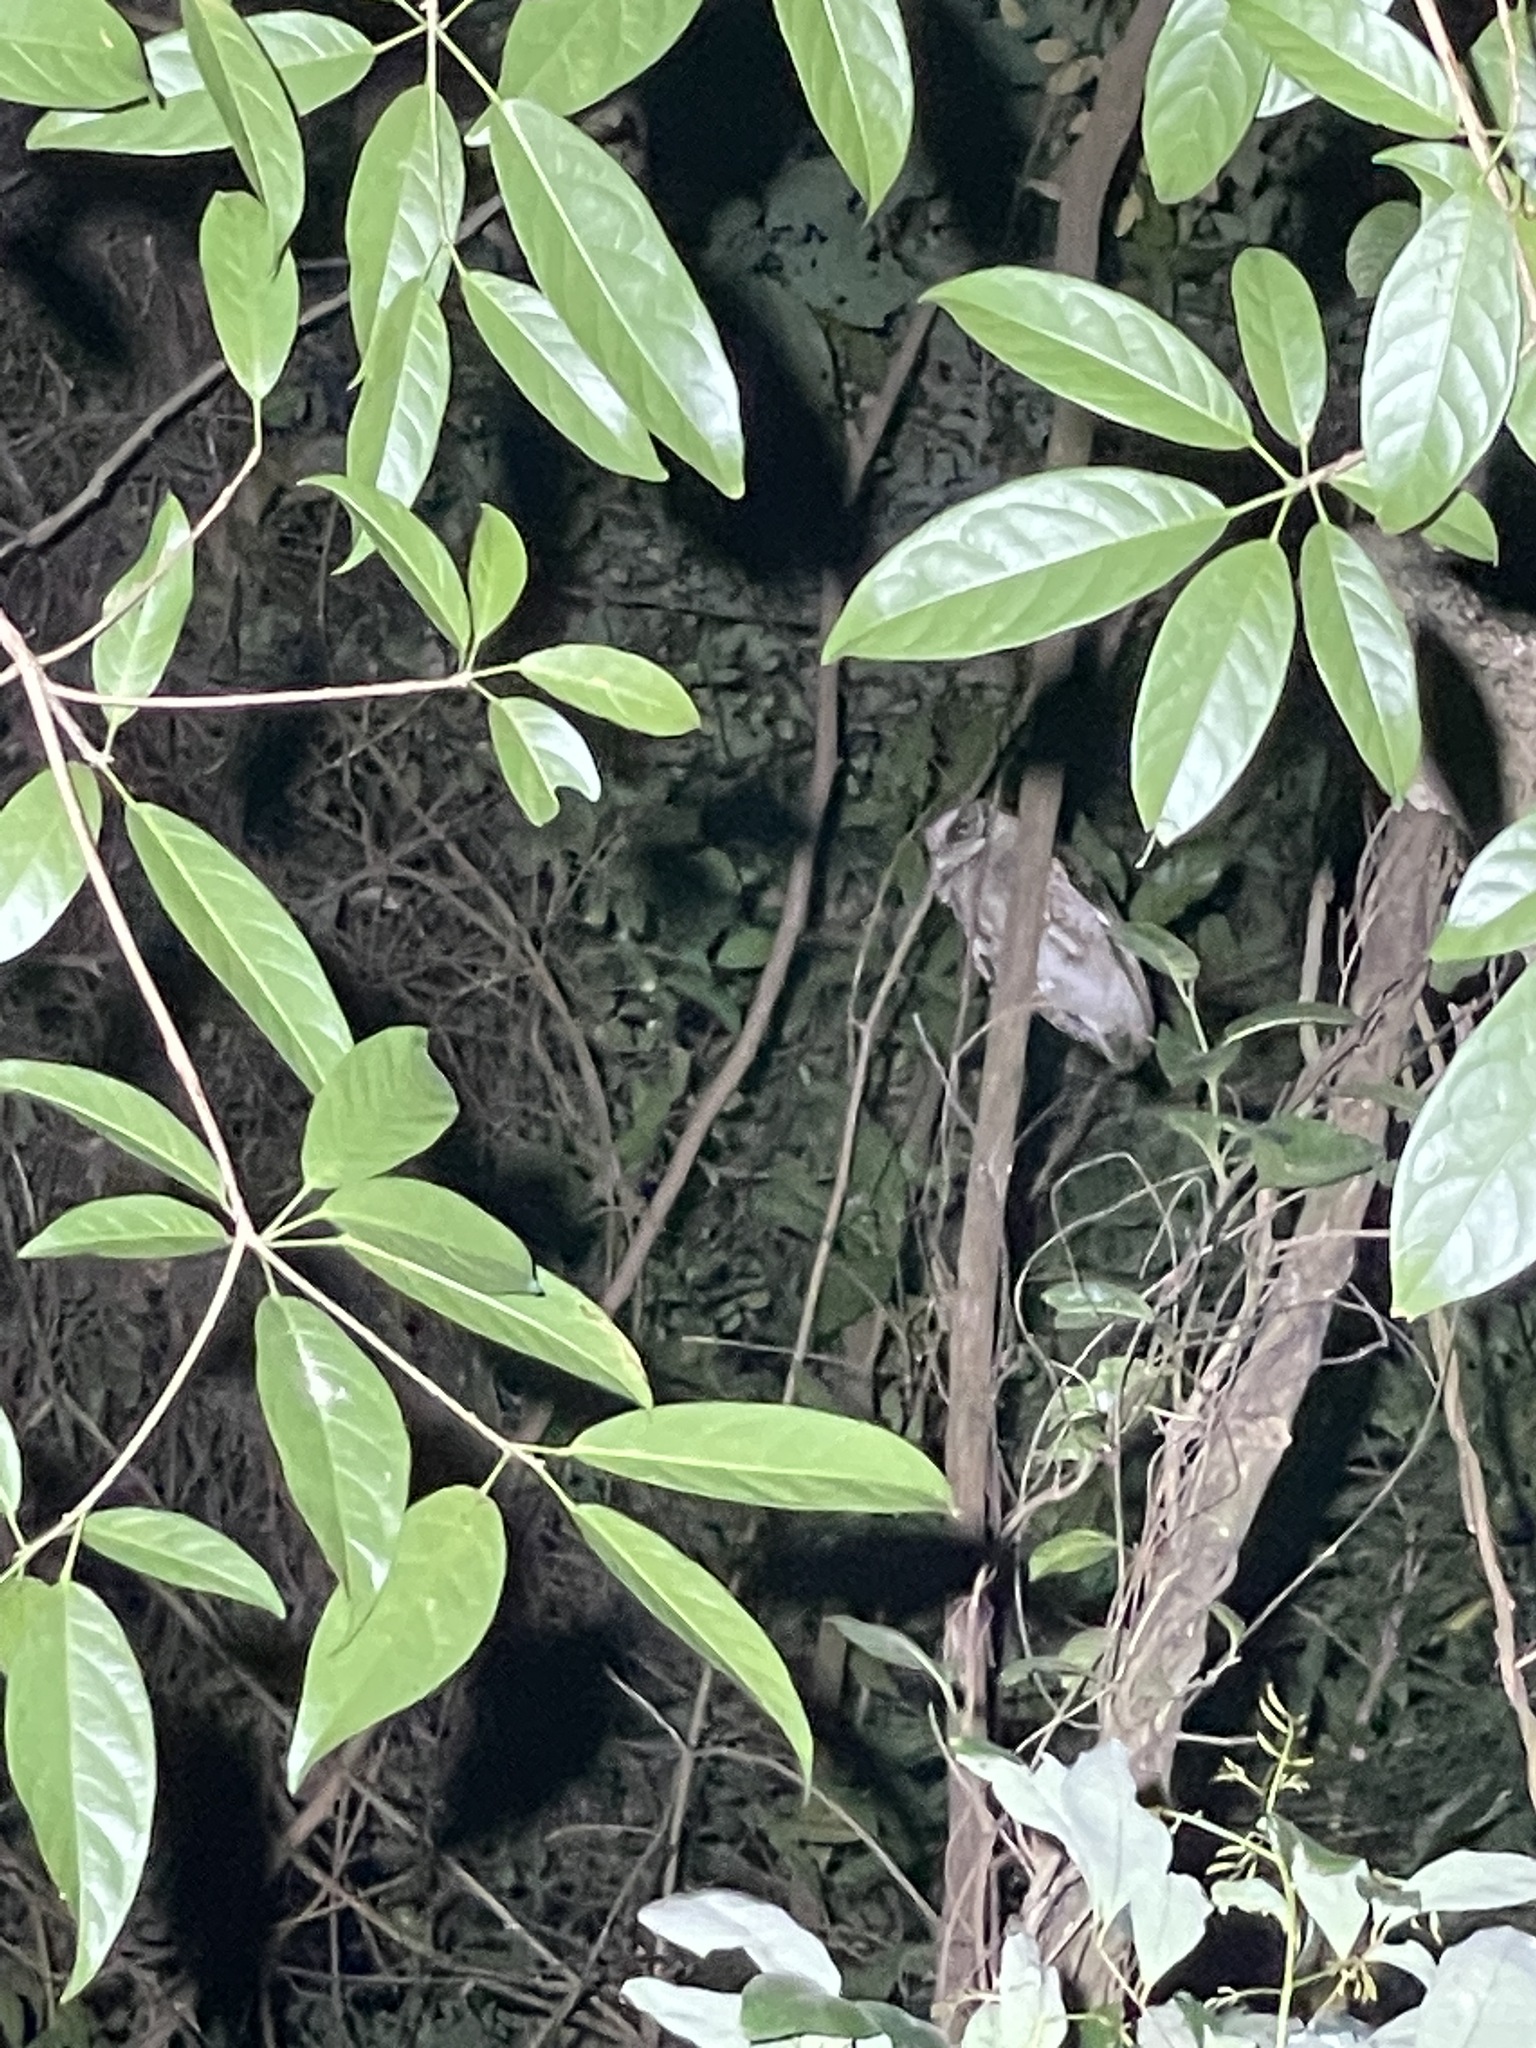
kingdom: Animalia
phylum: Chordata
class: Aves
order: Strigiformes
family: Strigidae
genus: Otus
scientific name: Otus lettia
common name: Collared scops owl
